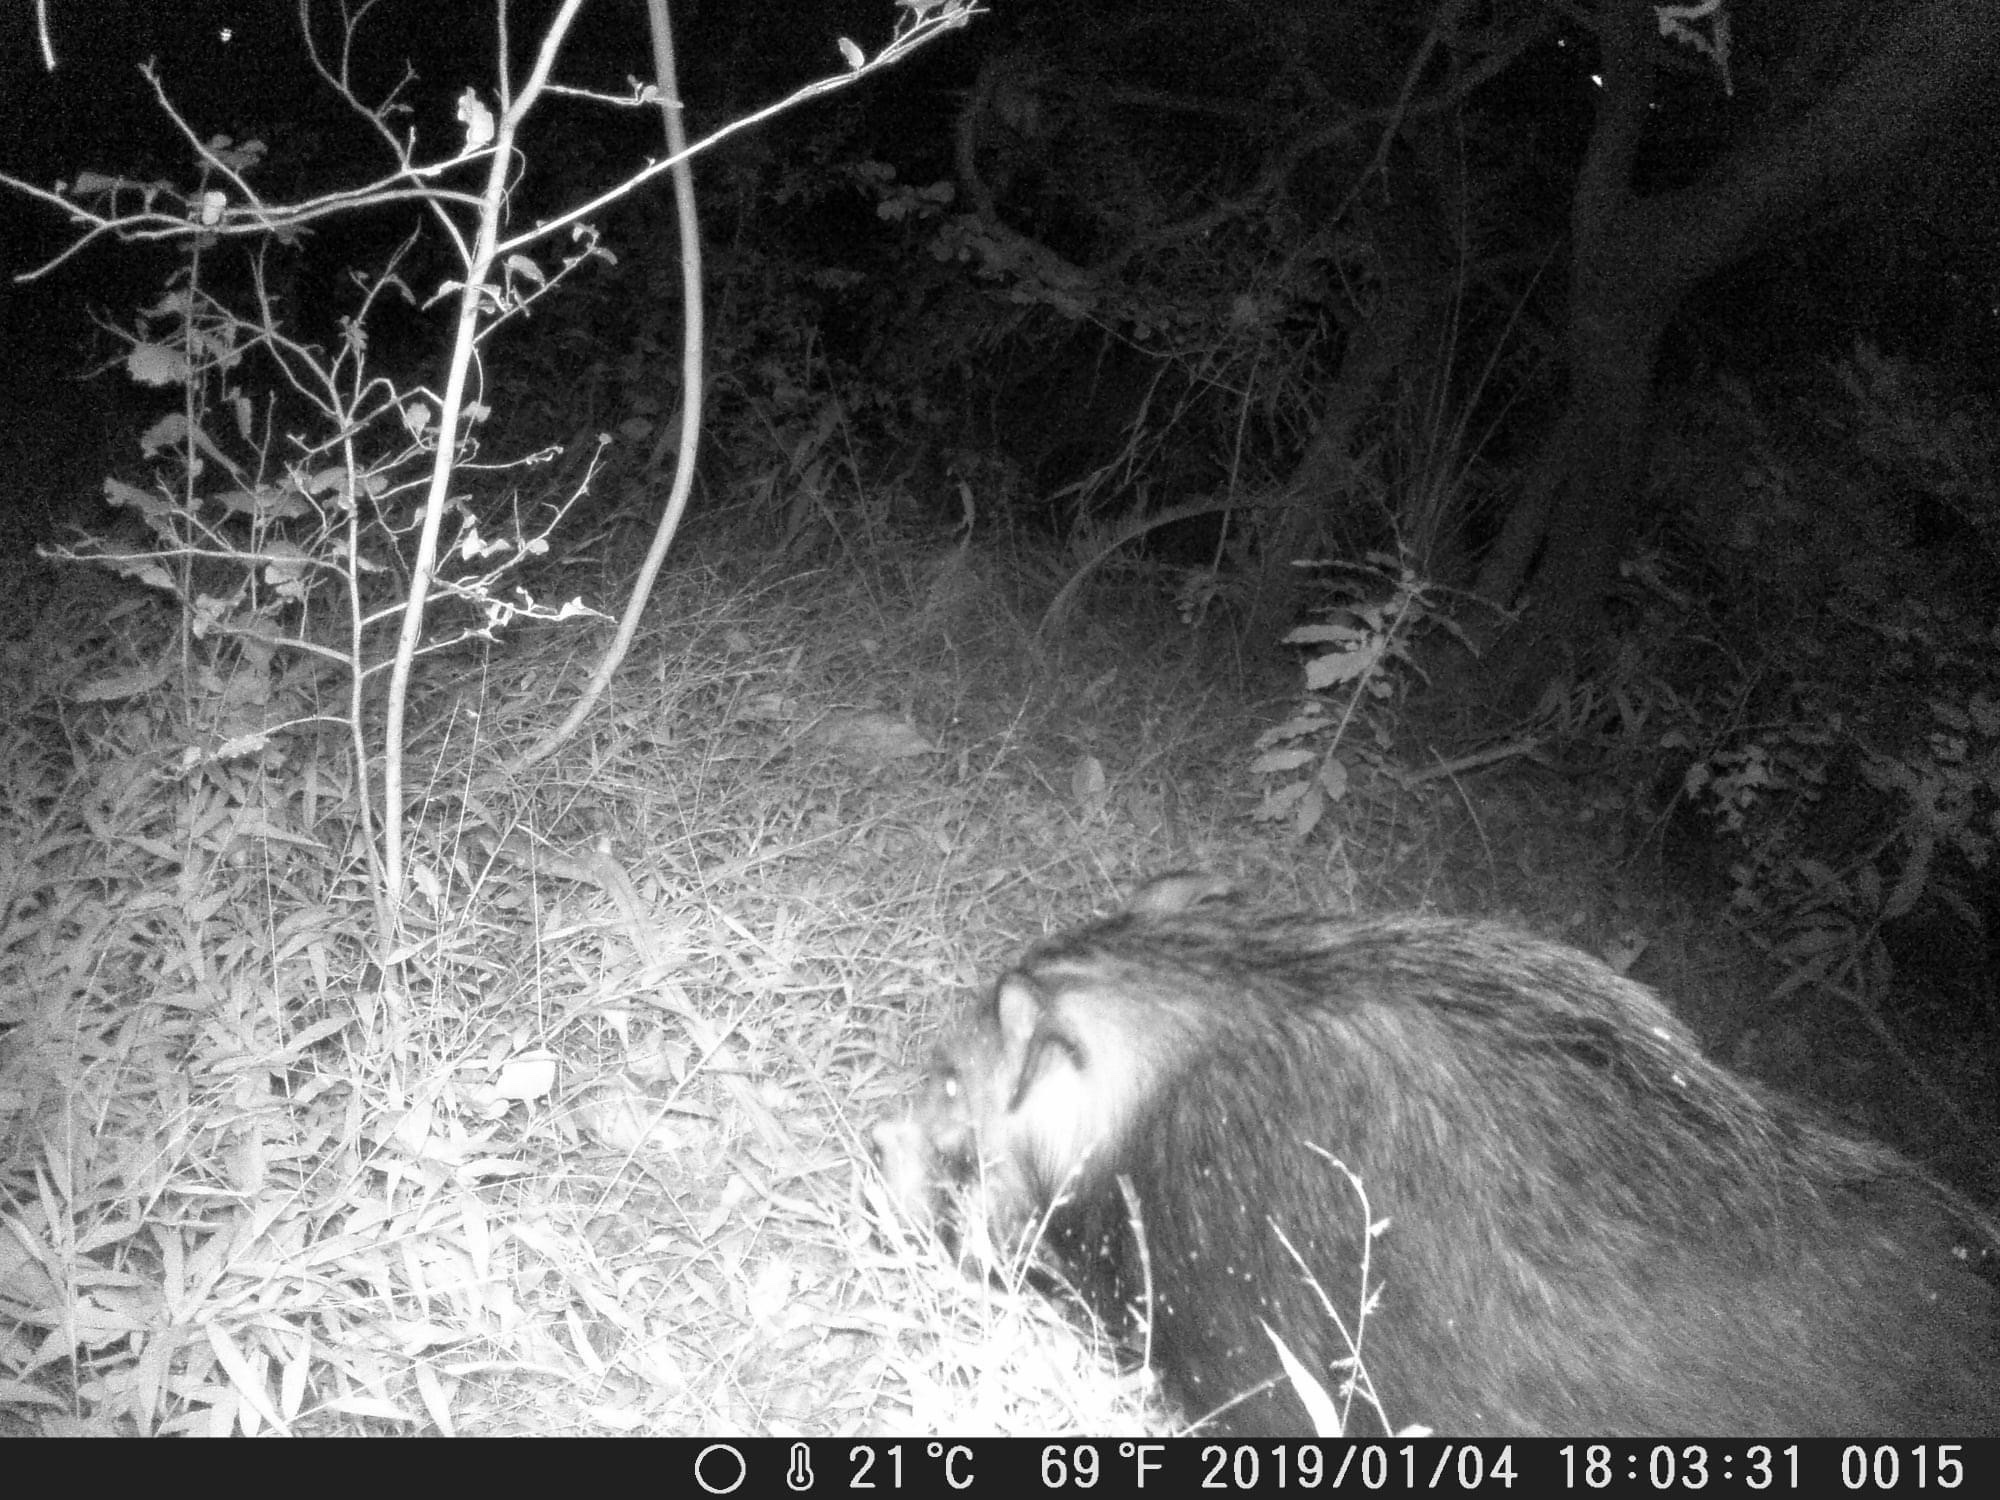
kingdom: Animalia
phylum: Chordata
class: Mammalia
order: Artiodactyla
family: Suidae
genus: Potamochoerus
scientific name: Potamochoerus larvatus
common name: Bushpig
